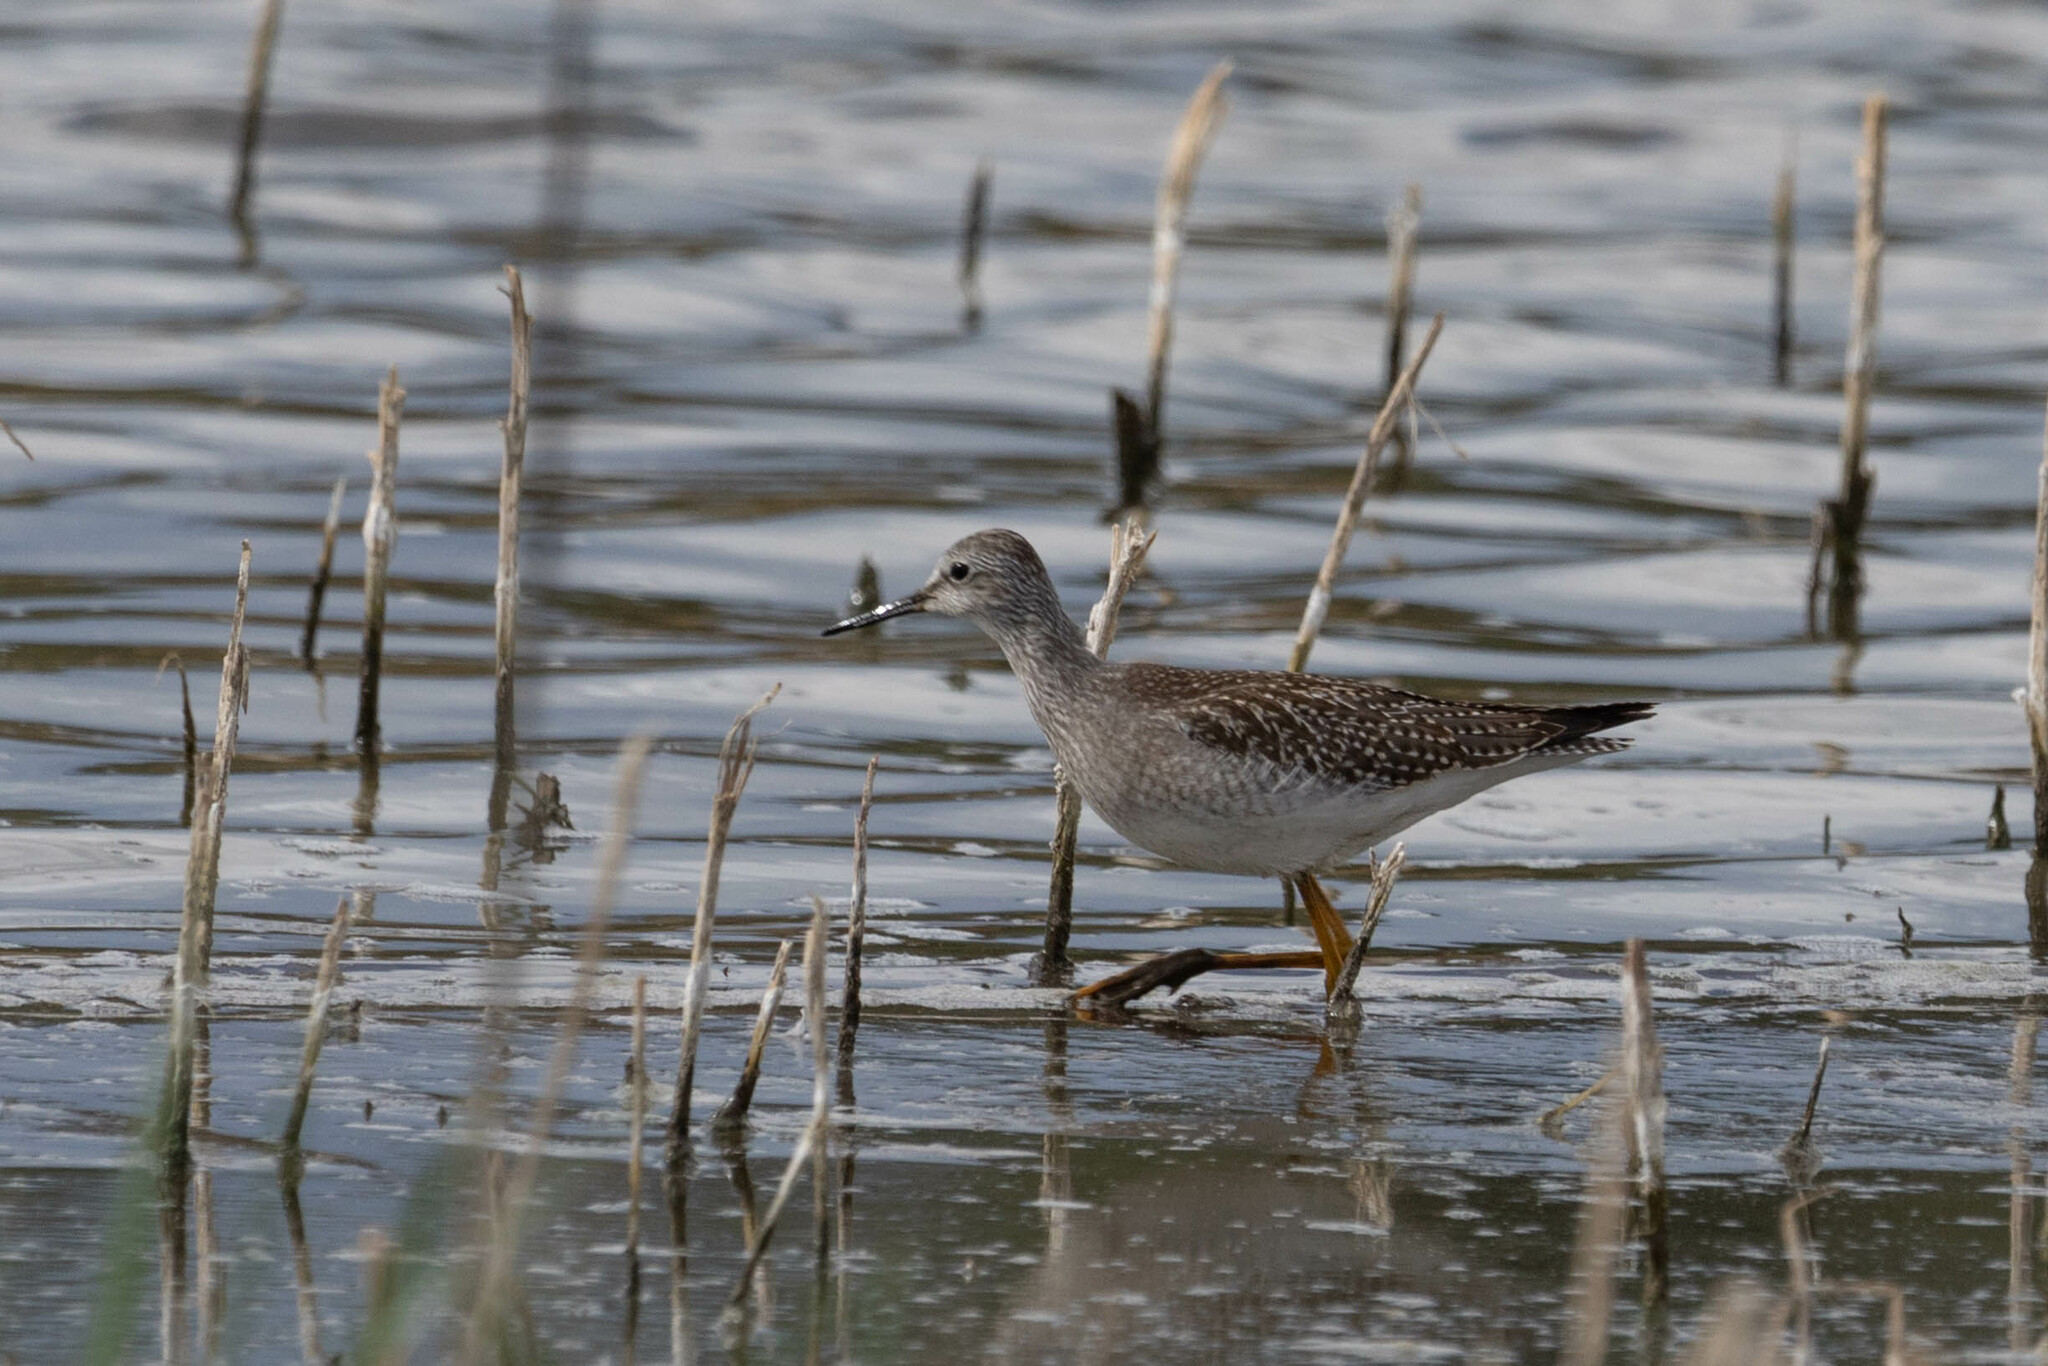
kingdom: Animalia
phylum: Chordata
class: Aves
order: Charadriiformes
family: Scolopacidae
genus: Tringa
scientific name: Tringa flavipes
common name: Lesser yellowlegs
